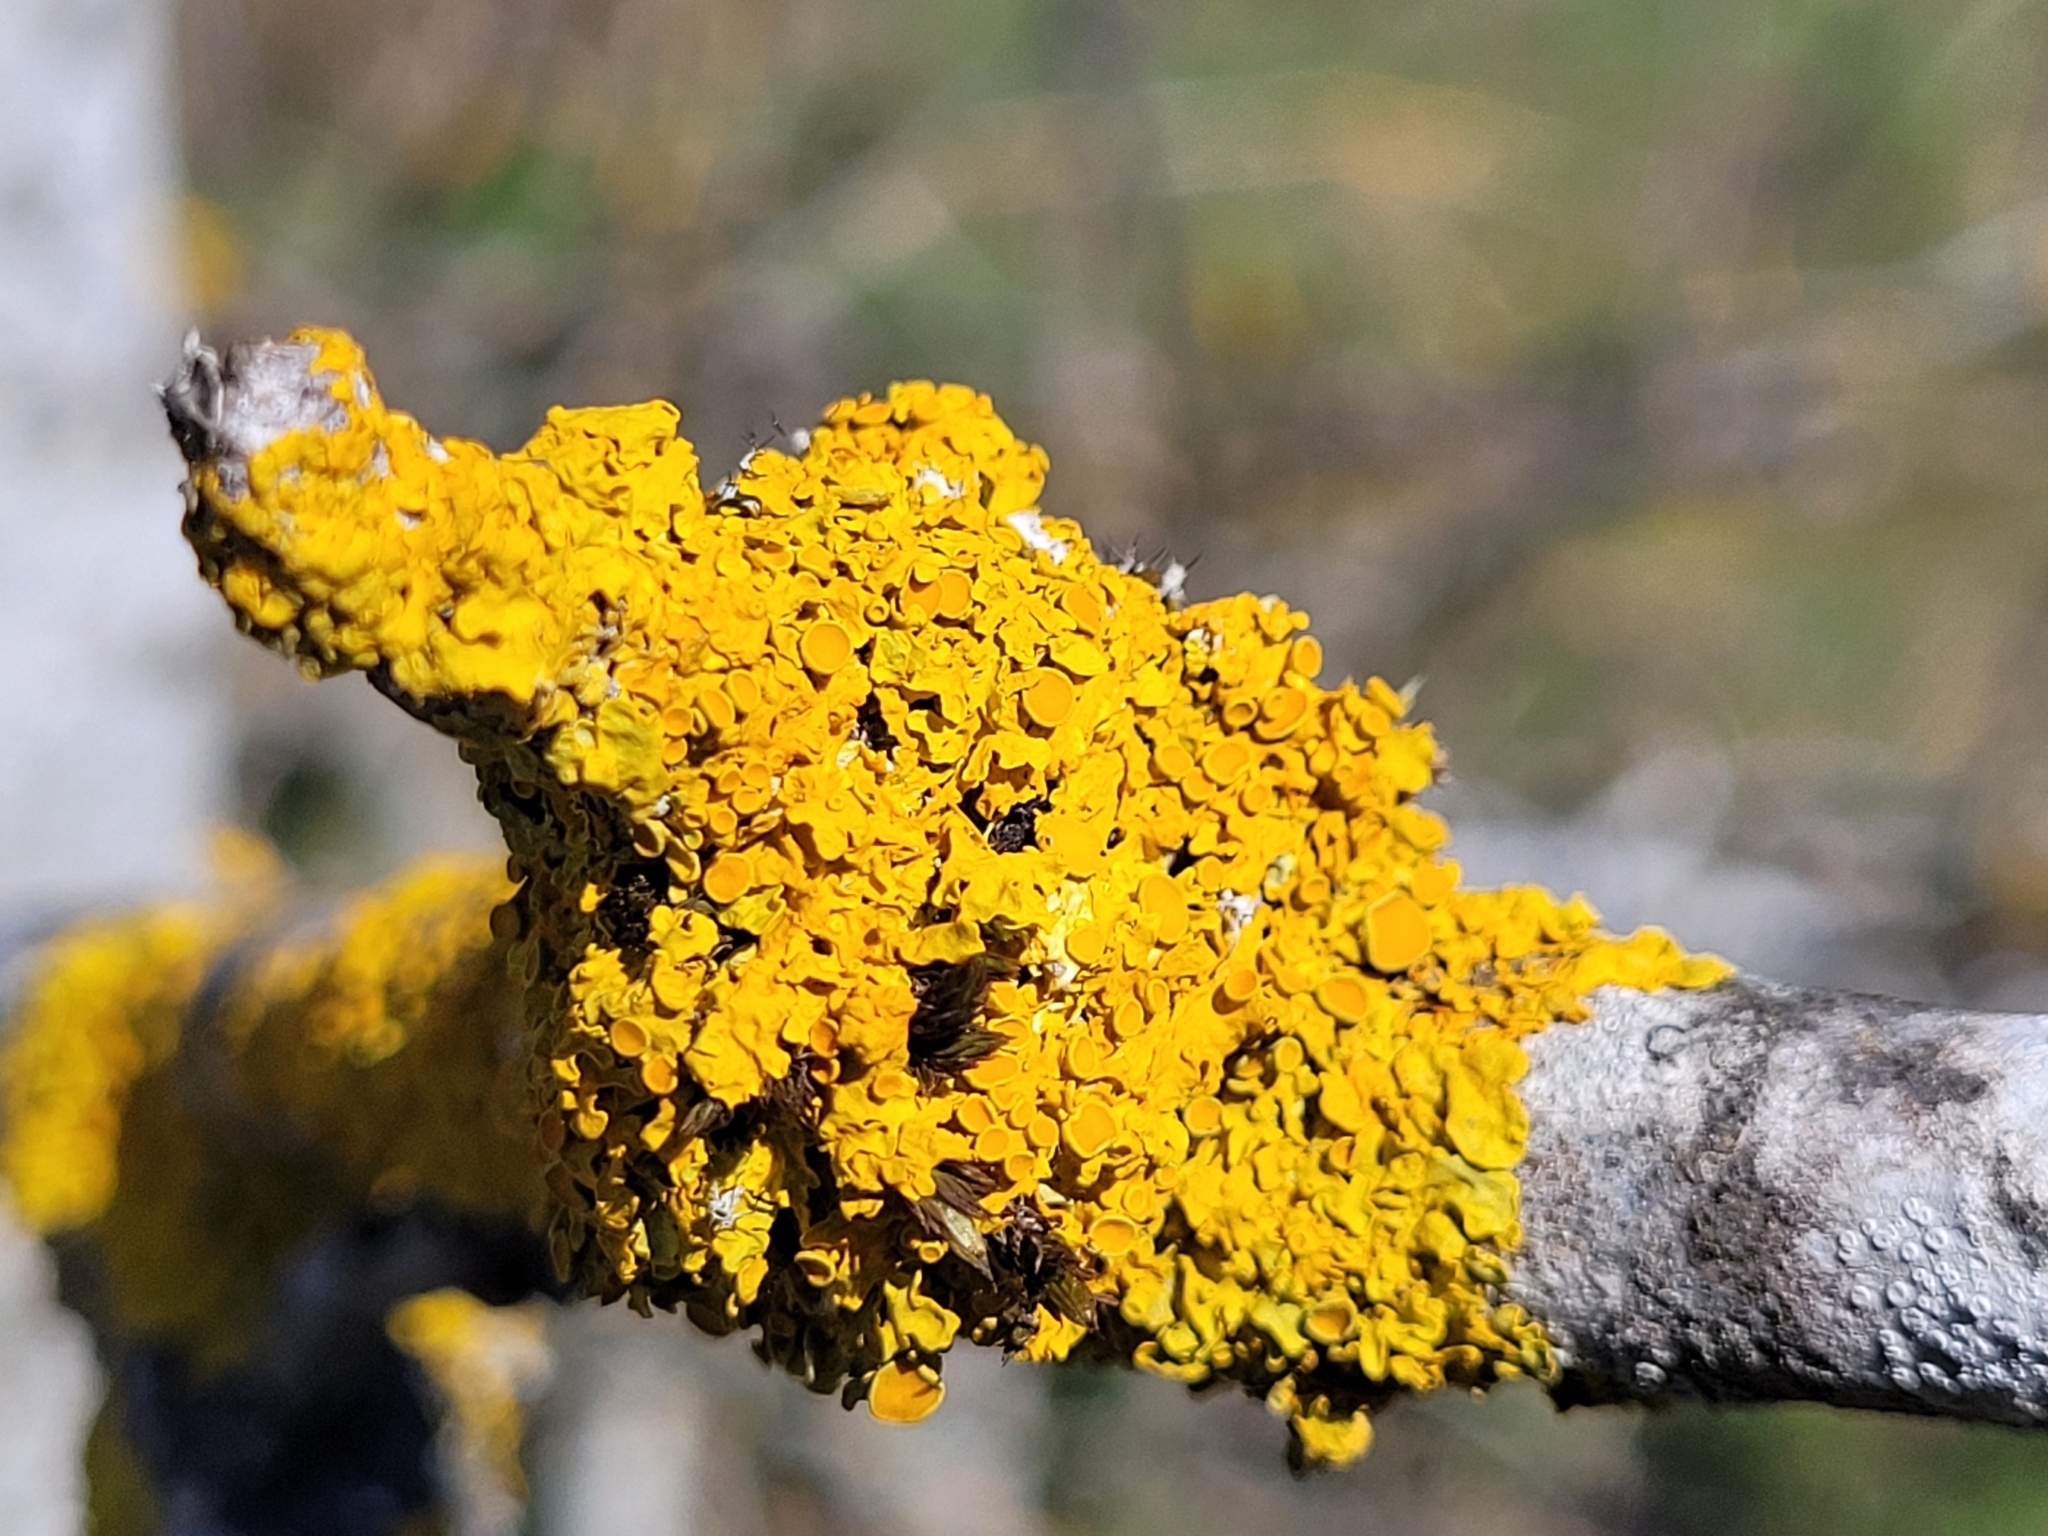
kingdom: Fungi
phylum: Ascomycota
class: Lecanoromycetes
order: Teloschistales
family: Teloschistaceae
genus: Xanthoria
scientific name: Xanthoria parietina
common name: Common orange lichen
